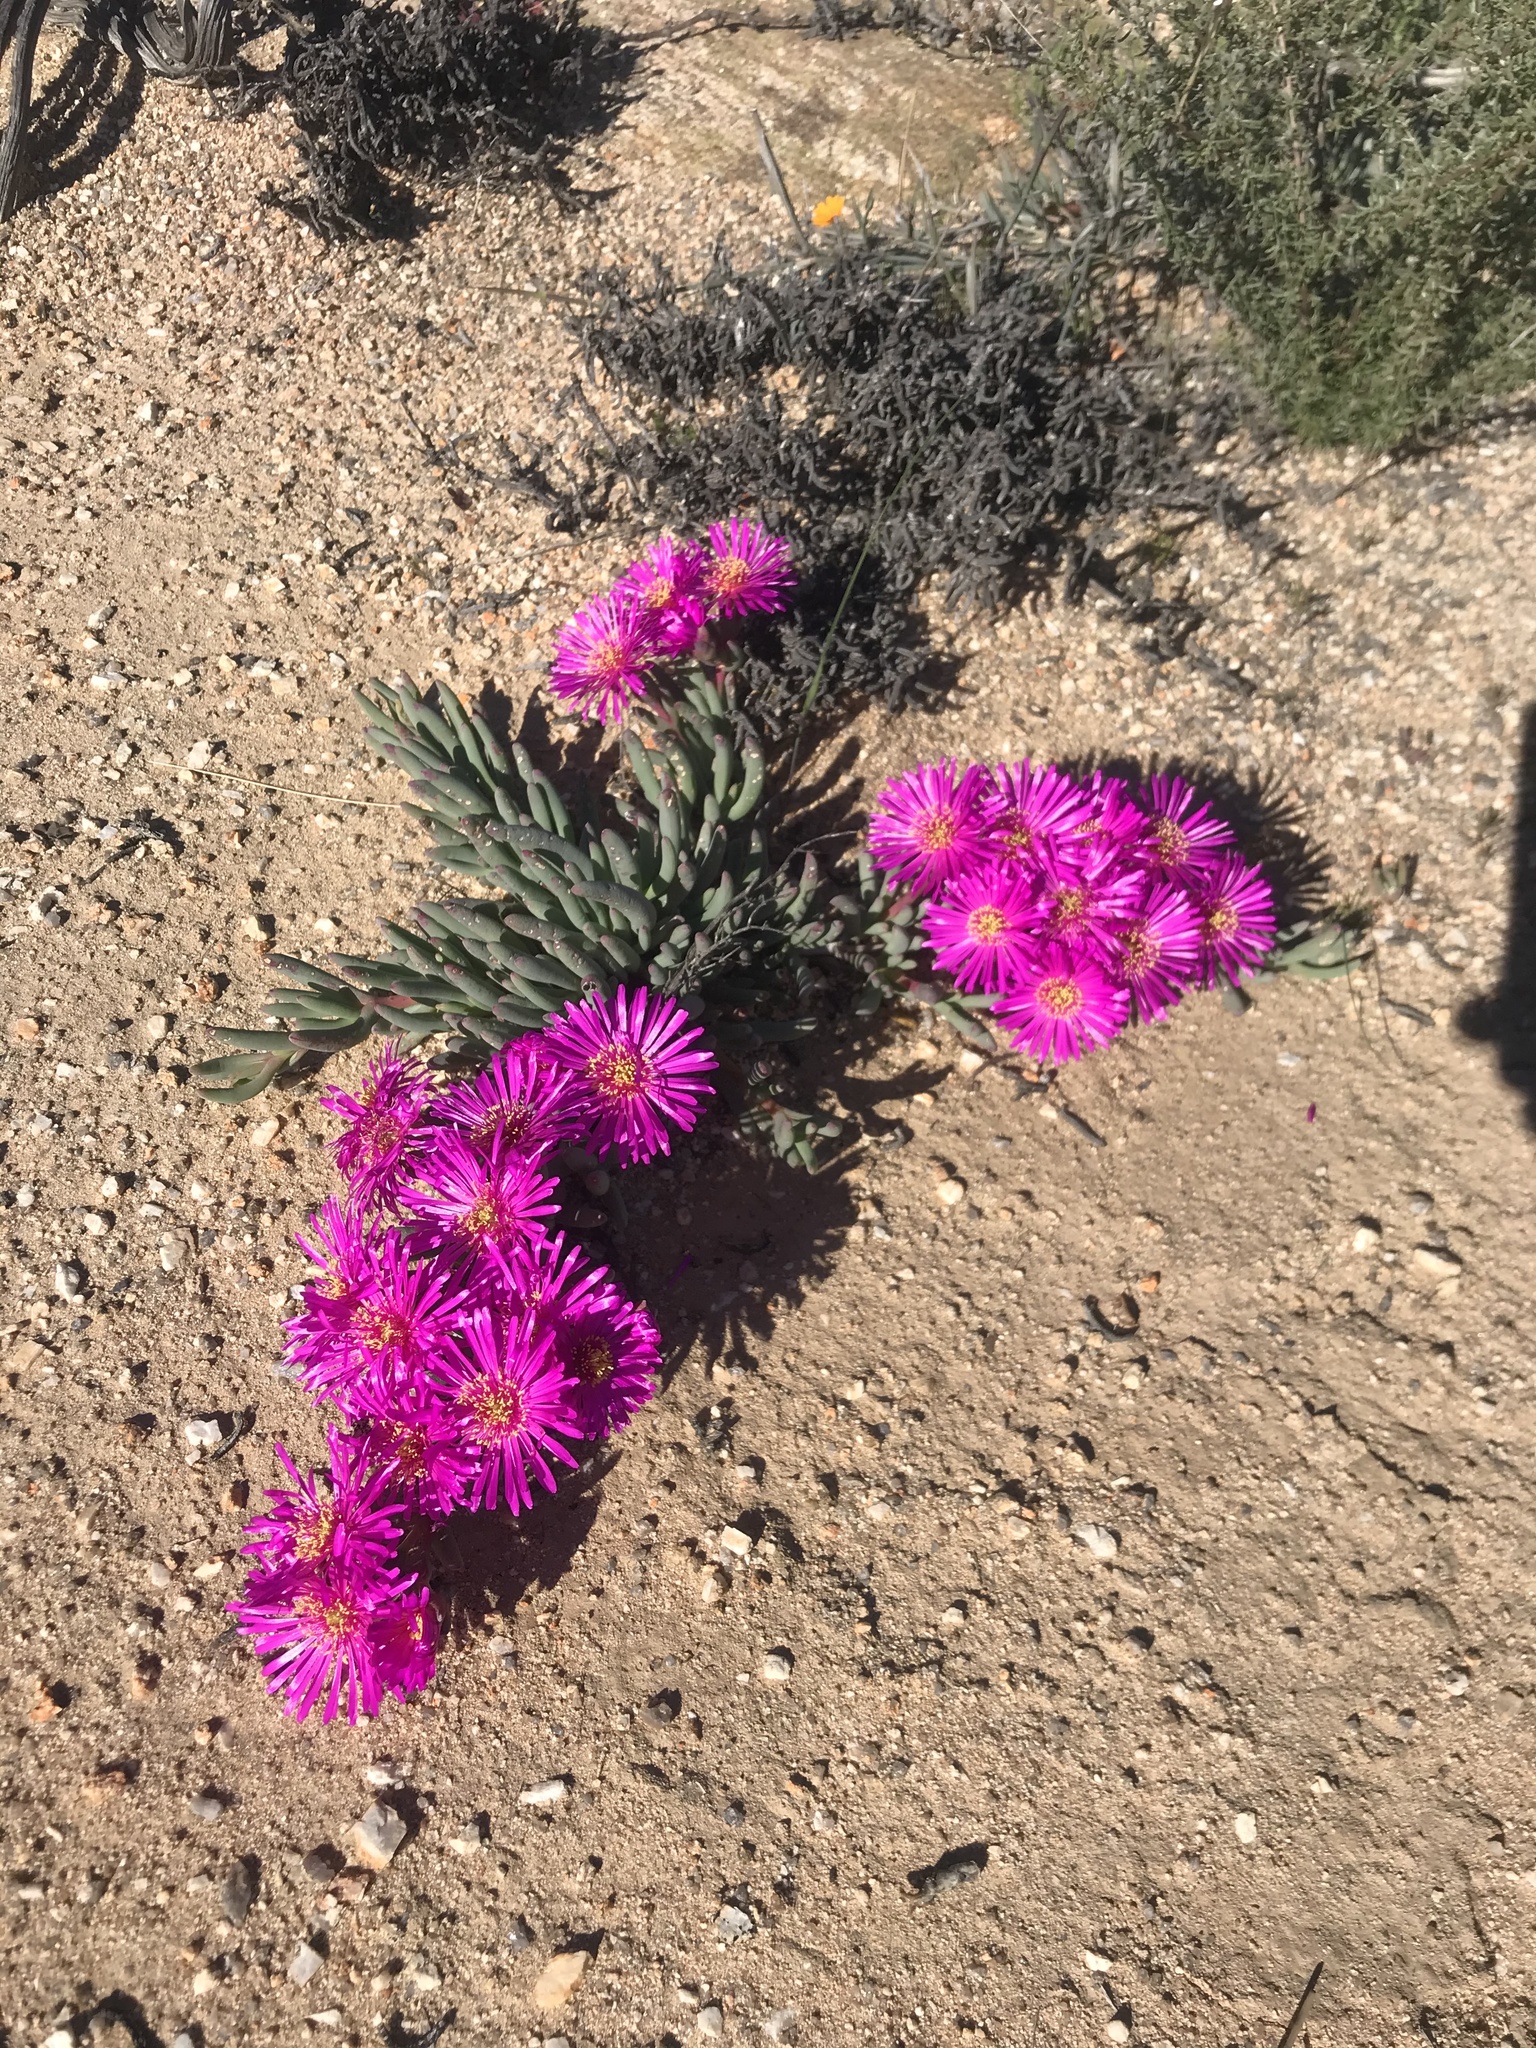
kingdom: Plantae
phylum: Tracheophyta
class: Magnoliopsida
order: Caryophyllales
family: Aizoaceae
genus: Ruschia
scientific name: Ruschia goodiae
